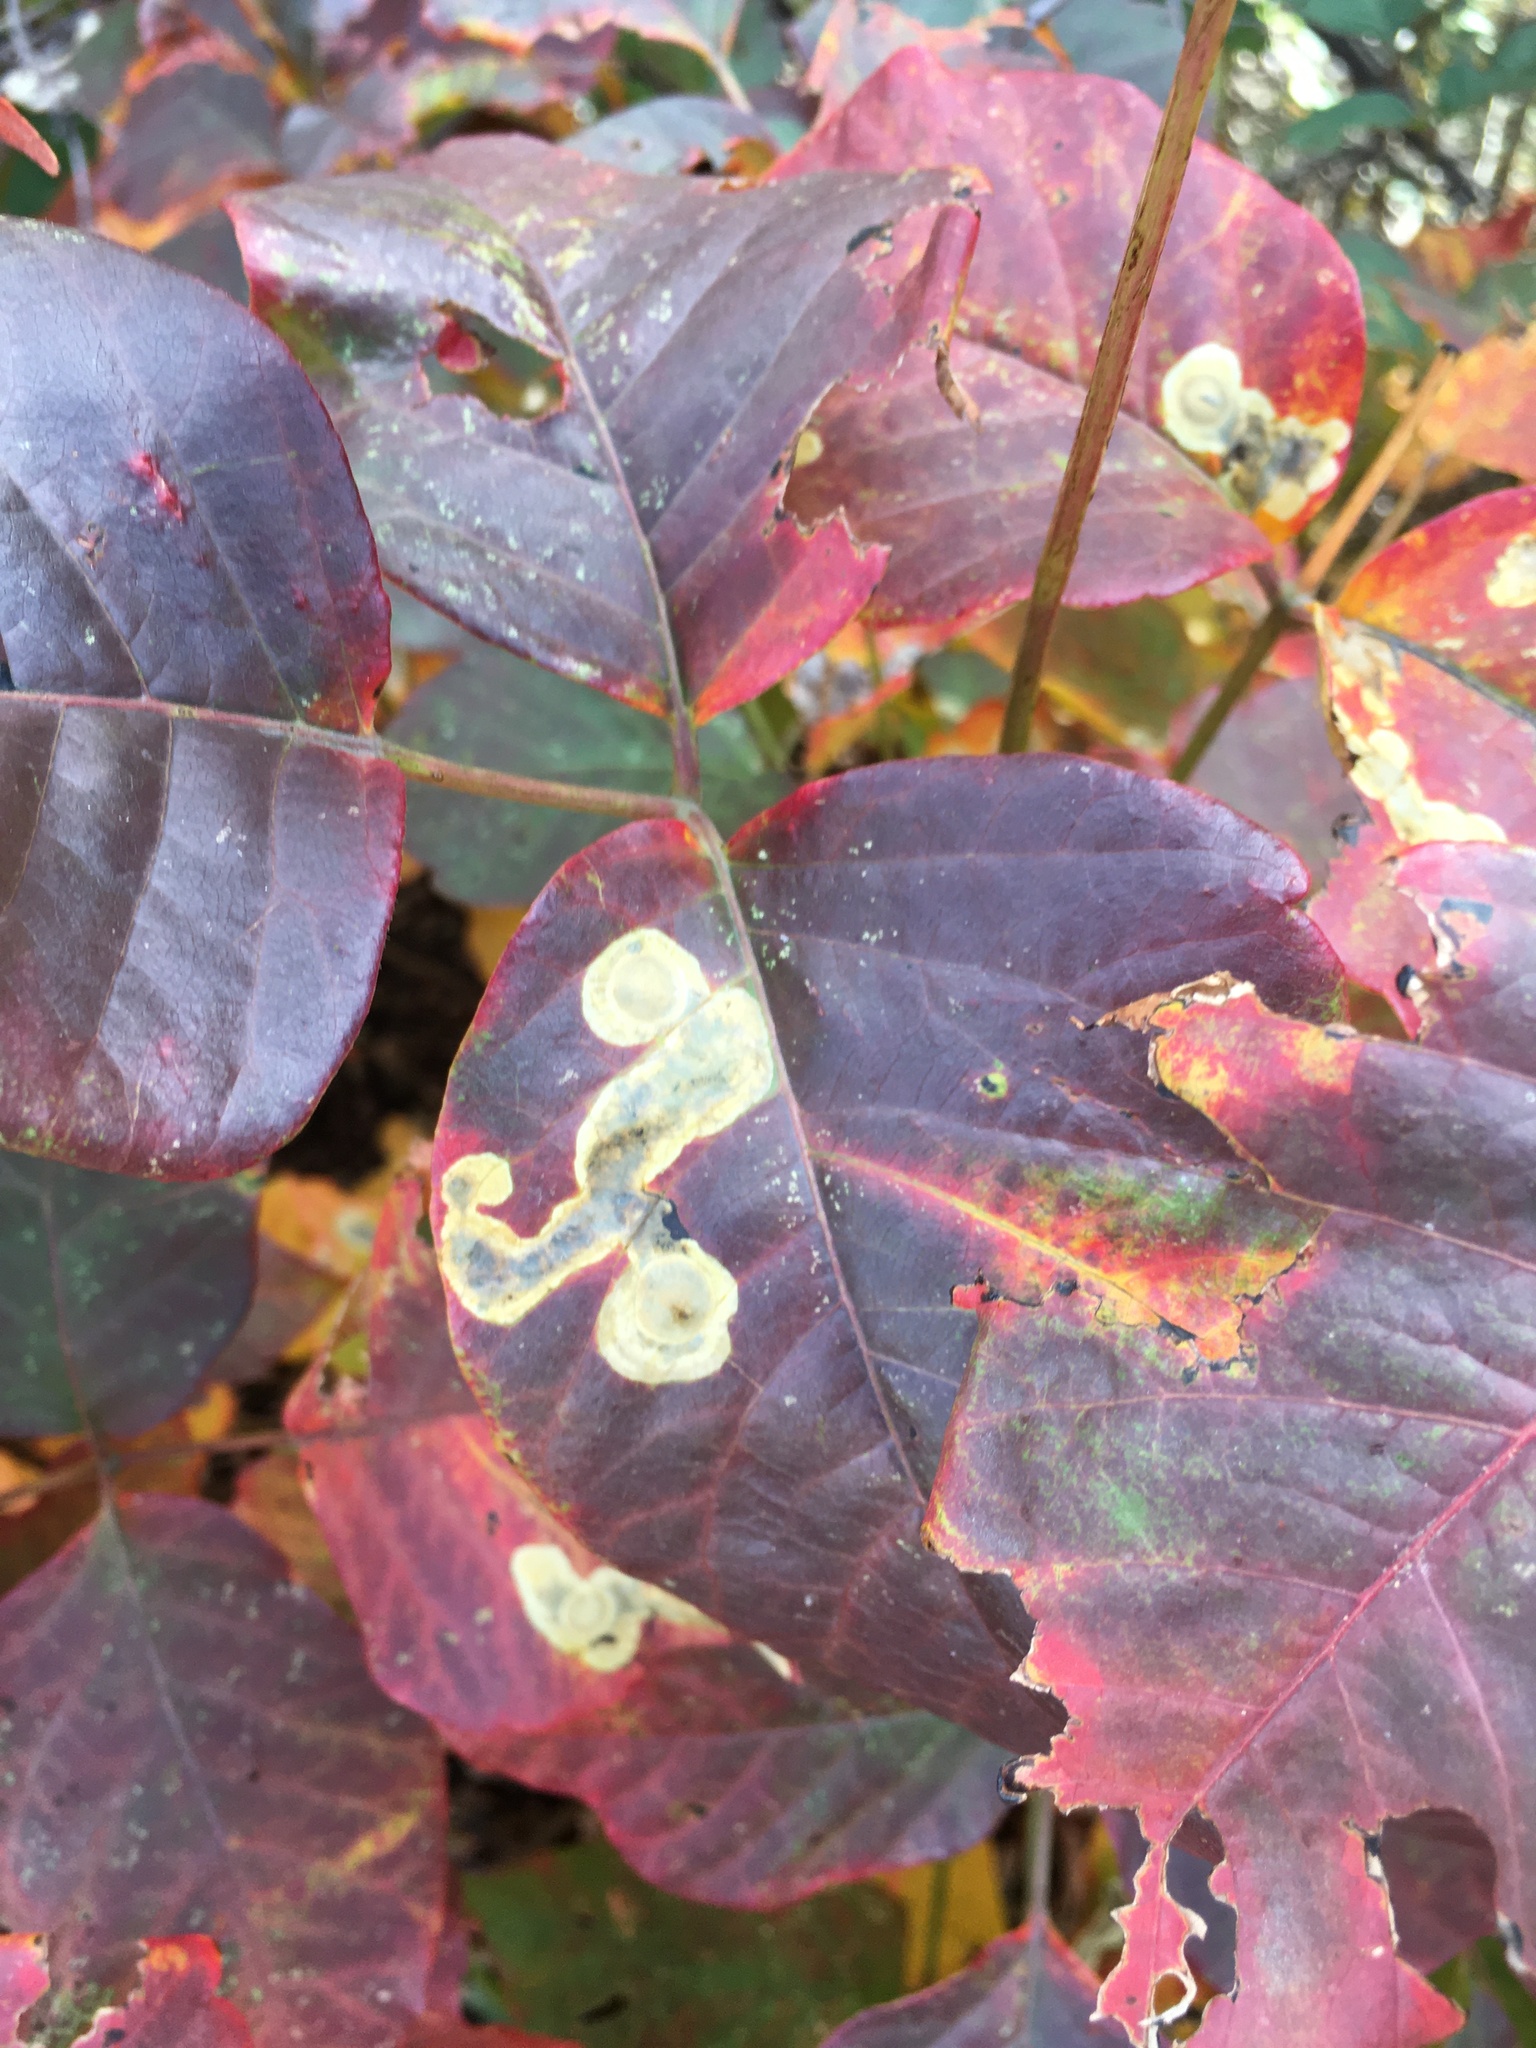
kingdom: Animalia
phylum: Arthropoda
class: Insecta
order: Lepidoptera
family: Gracillariidae
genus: Cameraria
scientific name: Cameraria guttifinitella
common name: Poison ivy leaf-miner moth
